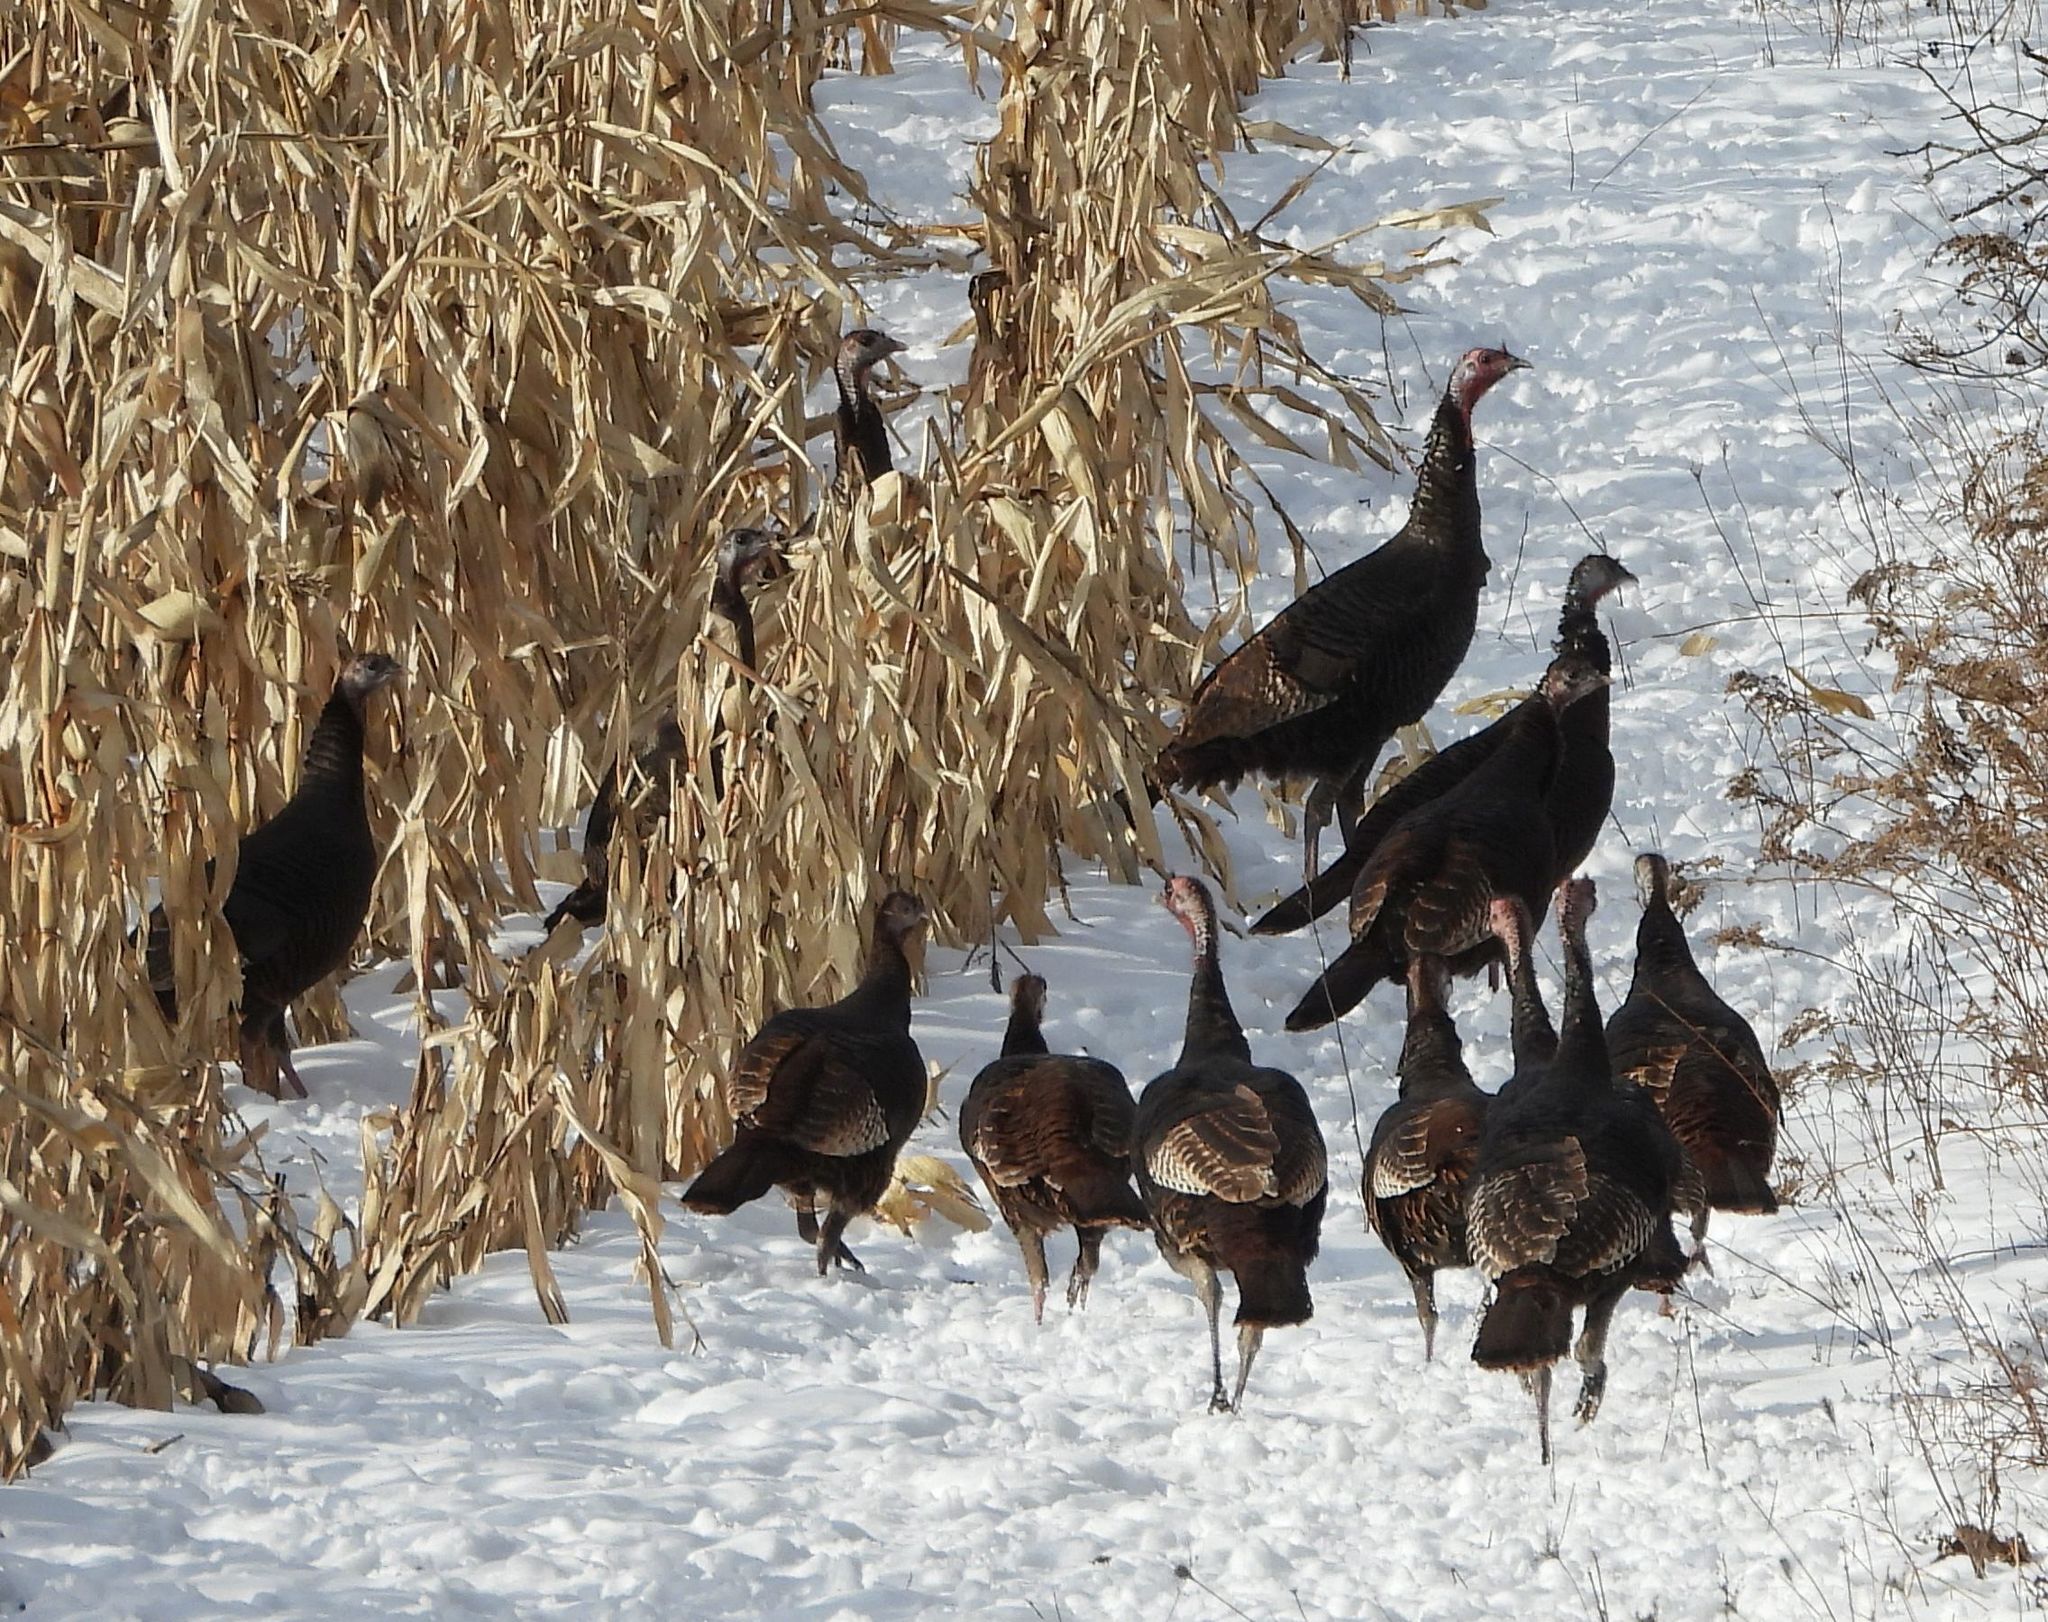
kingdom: Animalia
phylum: Chordata
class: Aves
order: Galliformes
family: Phasianidae
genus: Meleagris
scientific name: Meleagris gallopavo
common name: Wild turkey
